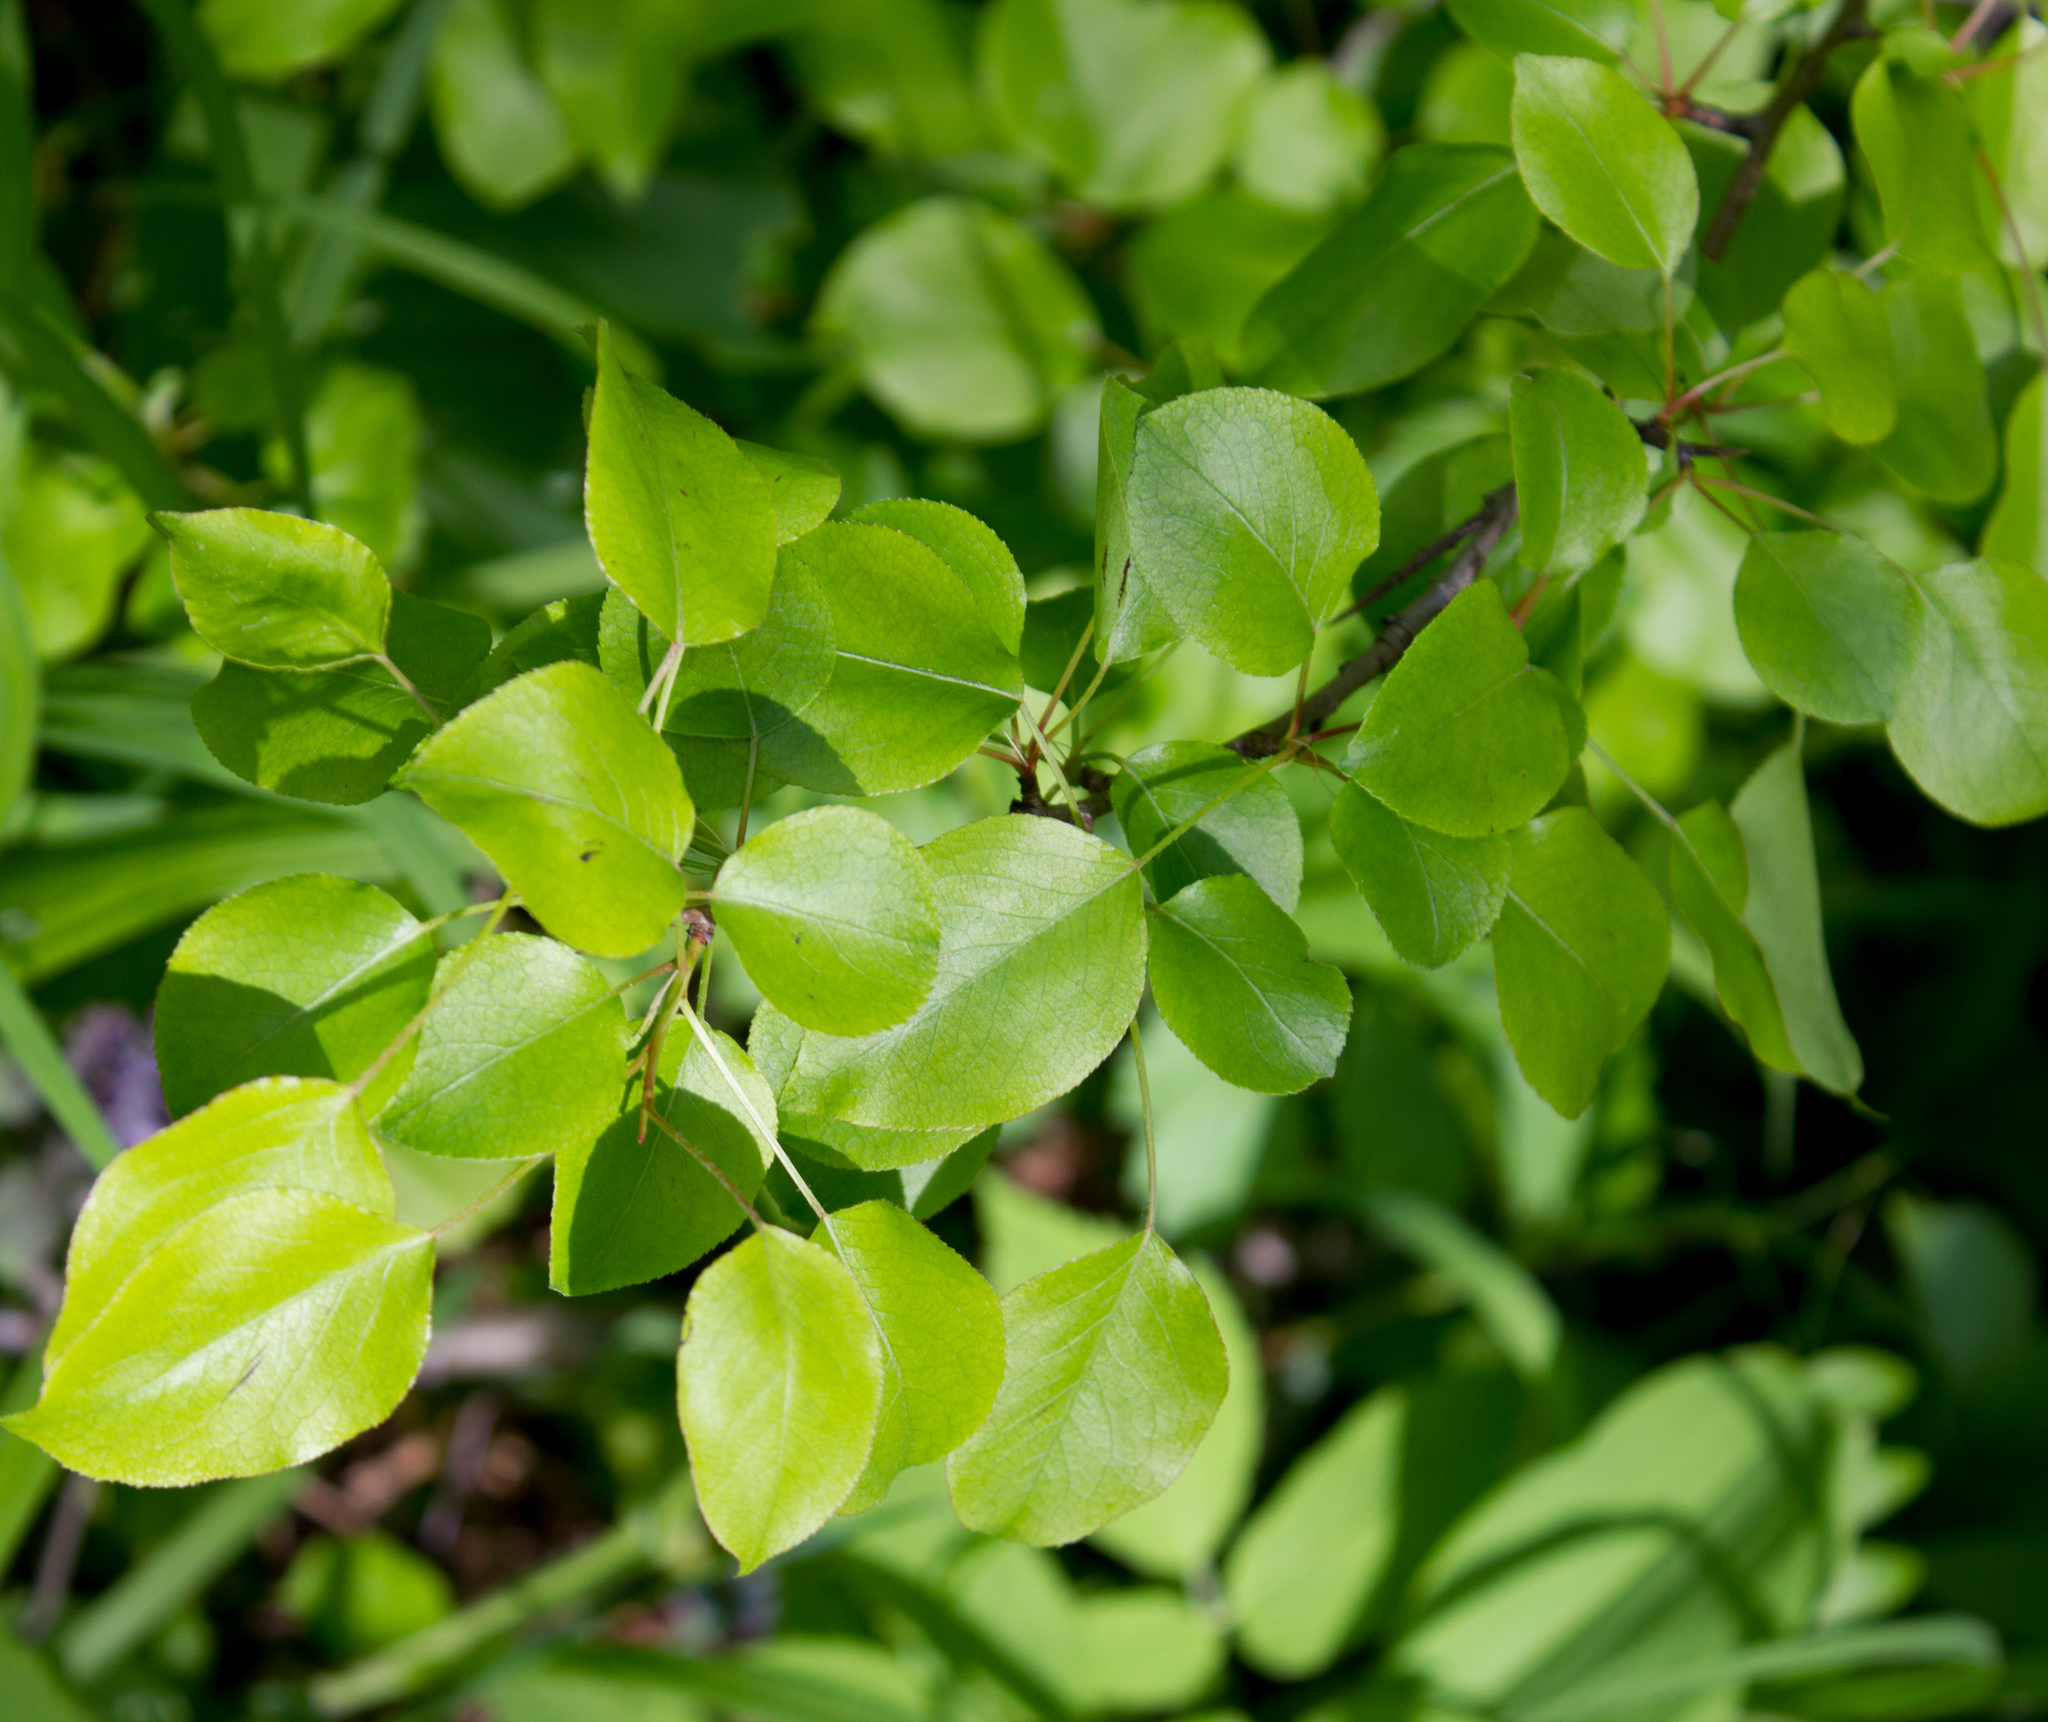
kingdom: Plantae
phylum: Tracheophyta
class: Magnoliopsida
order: Rosales
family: Rosaceae
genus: Pyrus
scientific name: Pyrus communis
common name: Pear
